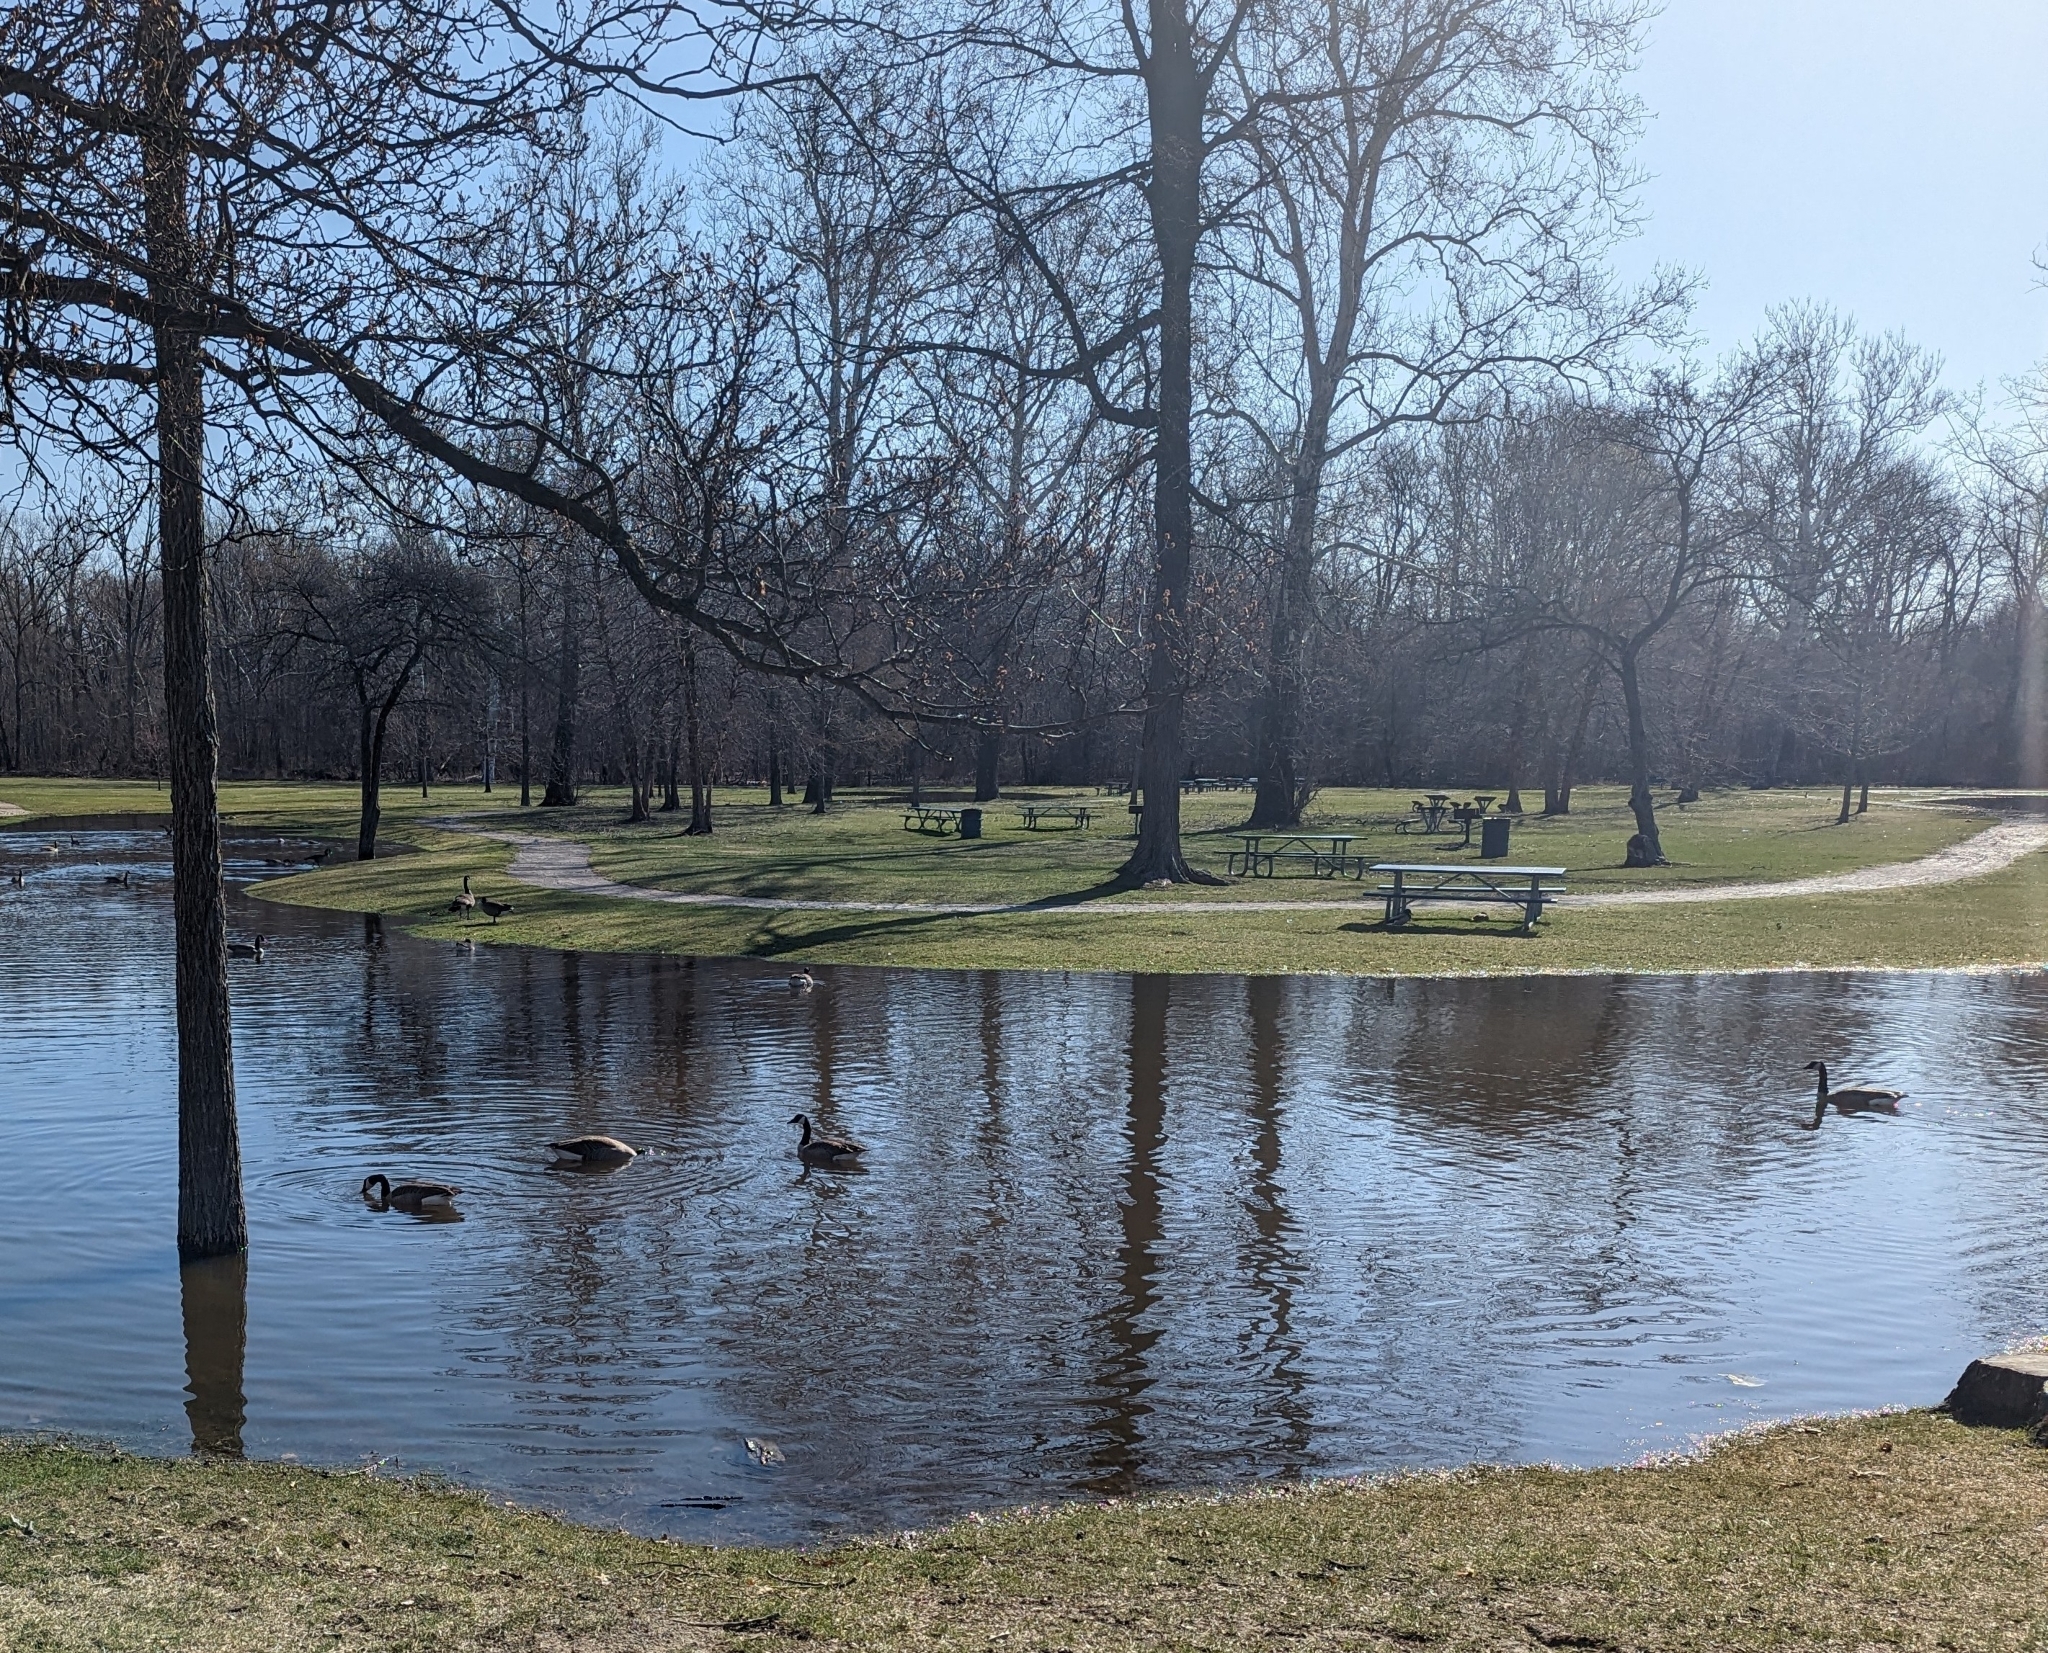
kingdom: Animalia
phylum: Chordata
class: Aves
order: Anseriformes
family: Anatidae
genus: Branta
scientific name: Branta canadensis
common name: Canada goose
